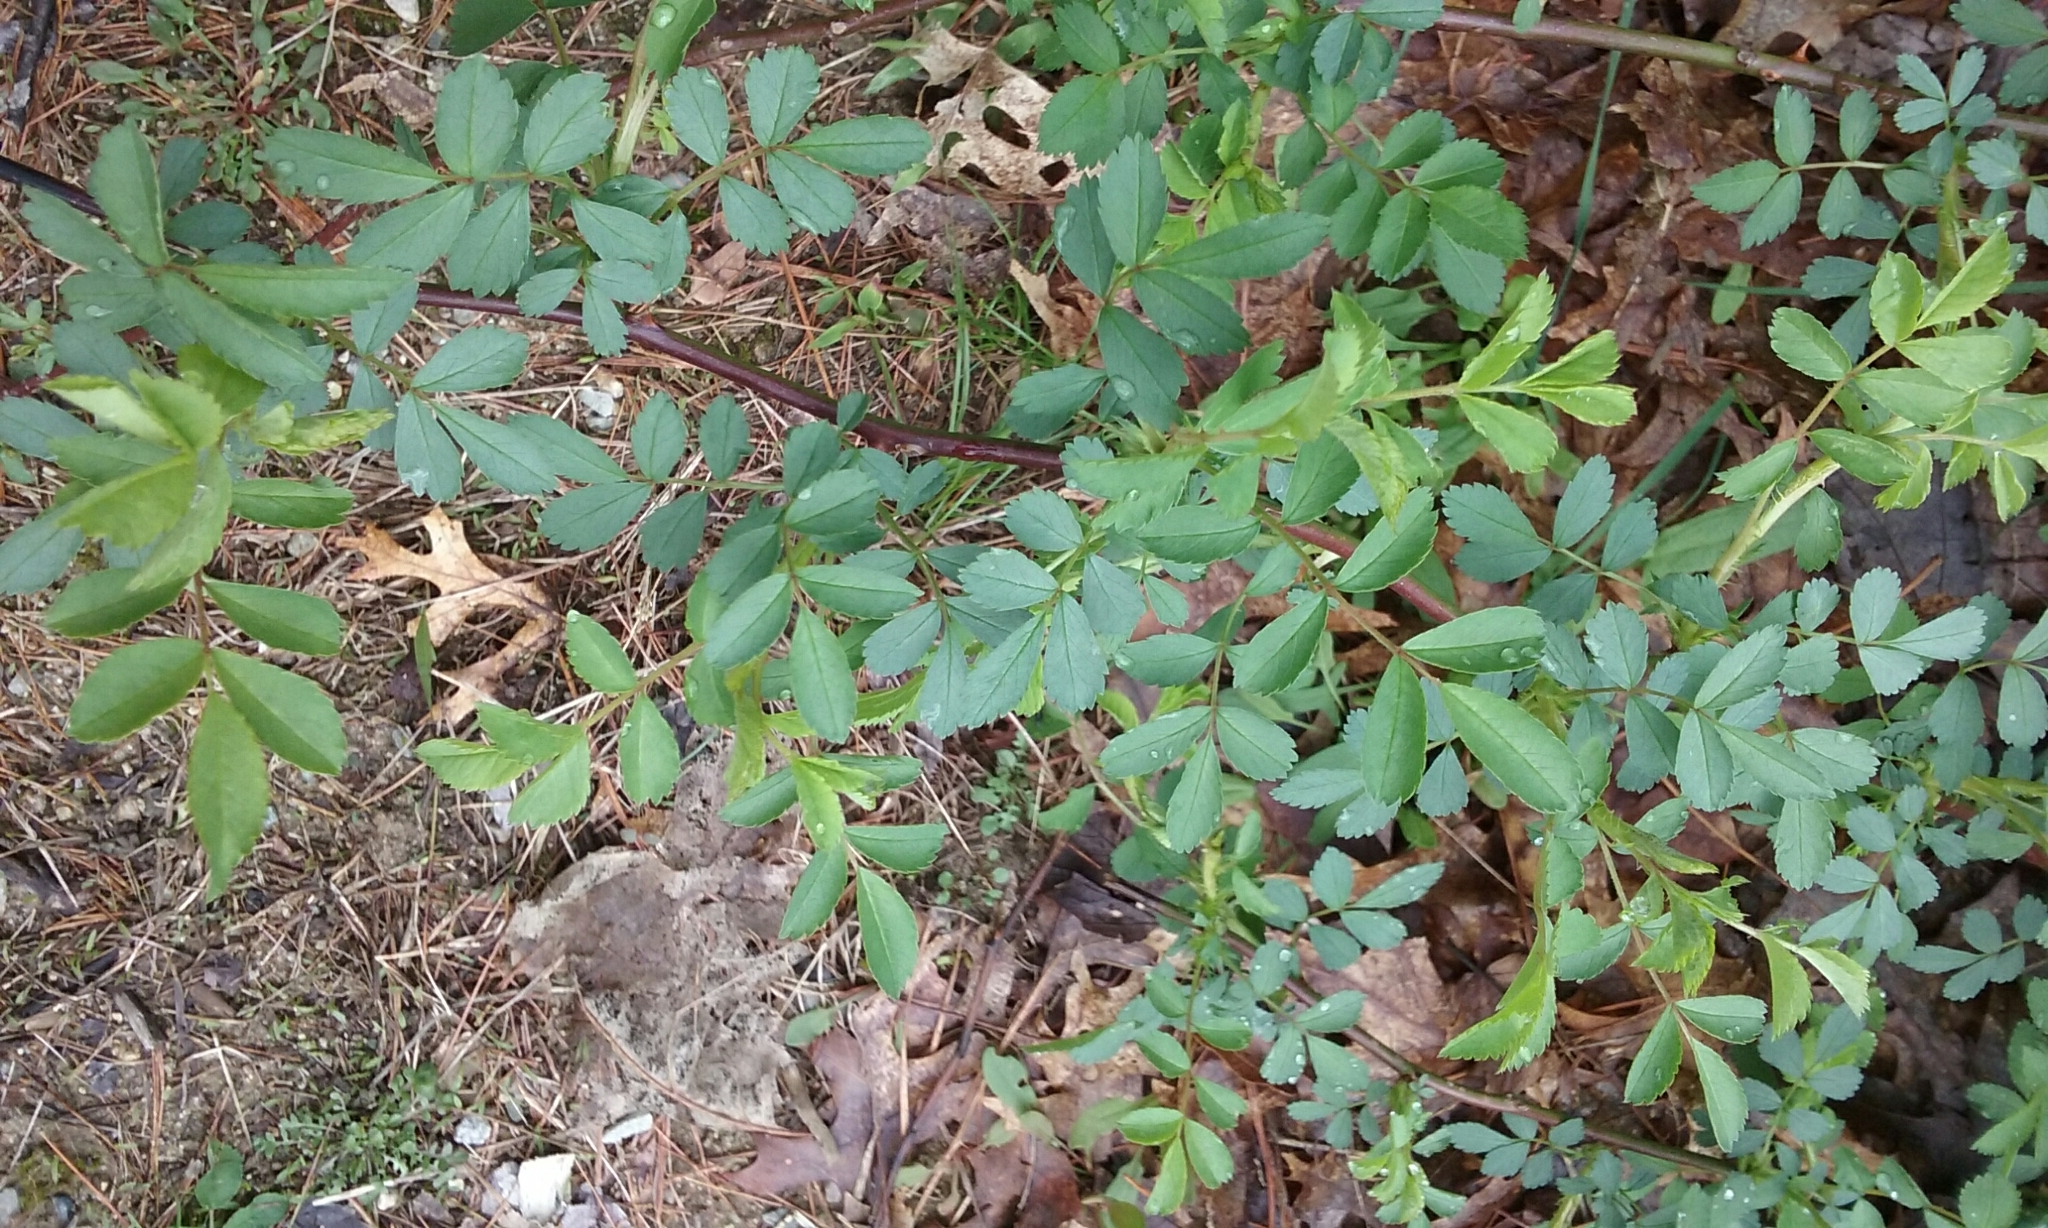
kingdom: Plantae
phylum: Tracheophyta
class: Magnoliopsida
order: Rosales
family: Rosaceae
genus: Rosa
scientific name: Rosa multiflora
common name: Multiflora rose
